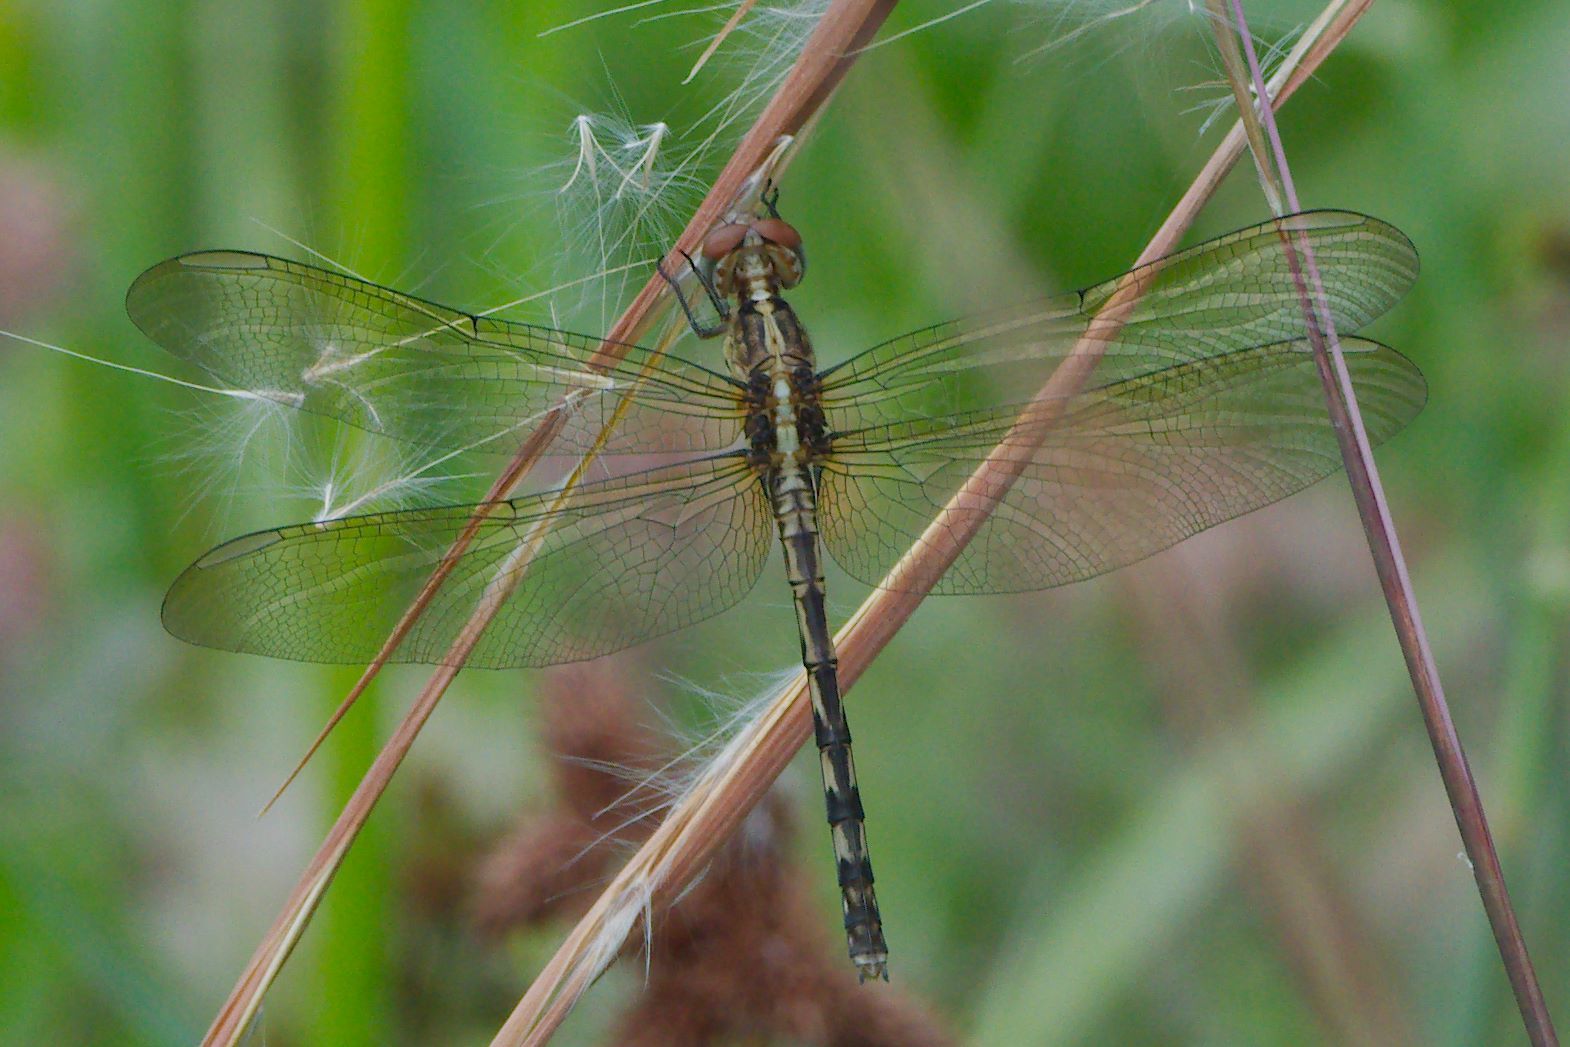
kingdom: Animalia
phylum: Arthropoda
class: Insecta
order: Odonata
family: Libellulidae
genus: Erythrodiplax
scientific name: Erythrodiplax umbrata
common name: Band-winged dragonlet
